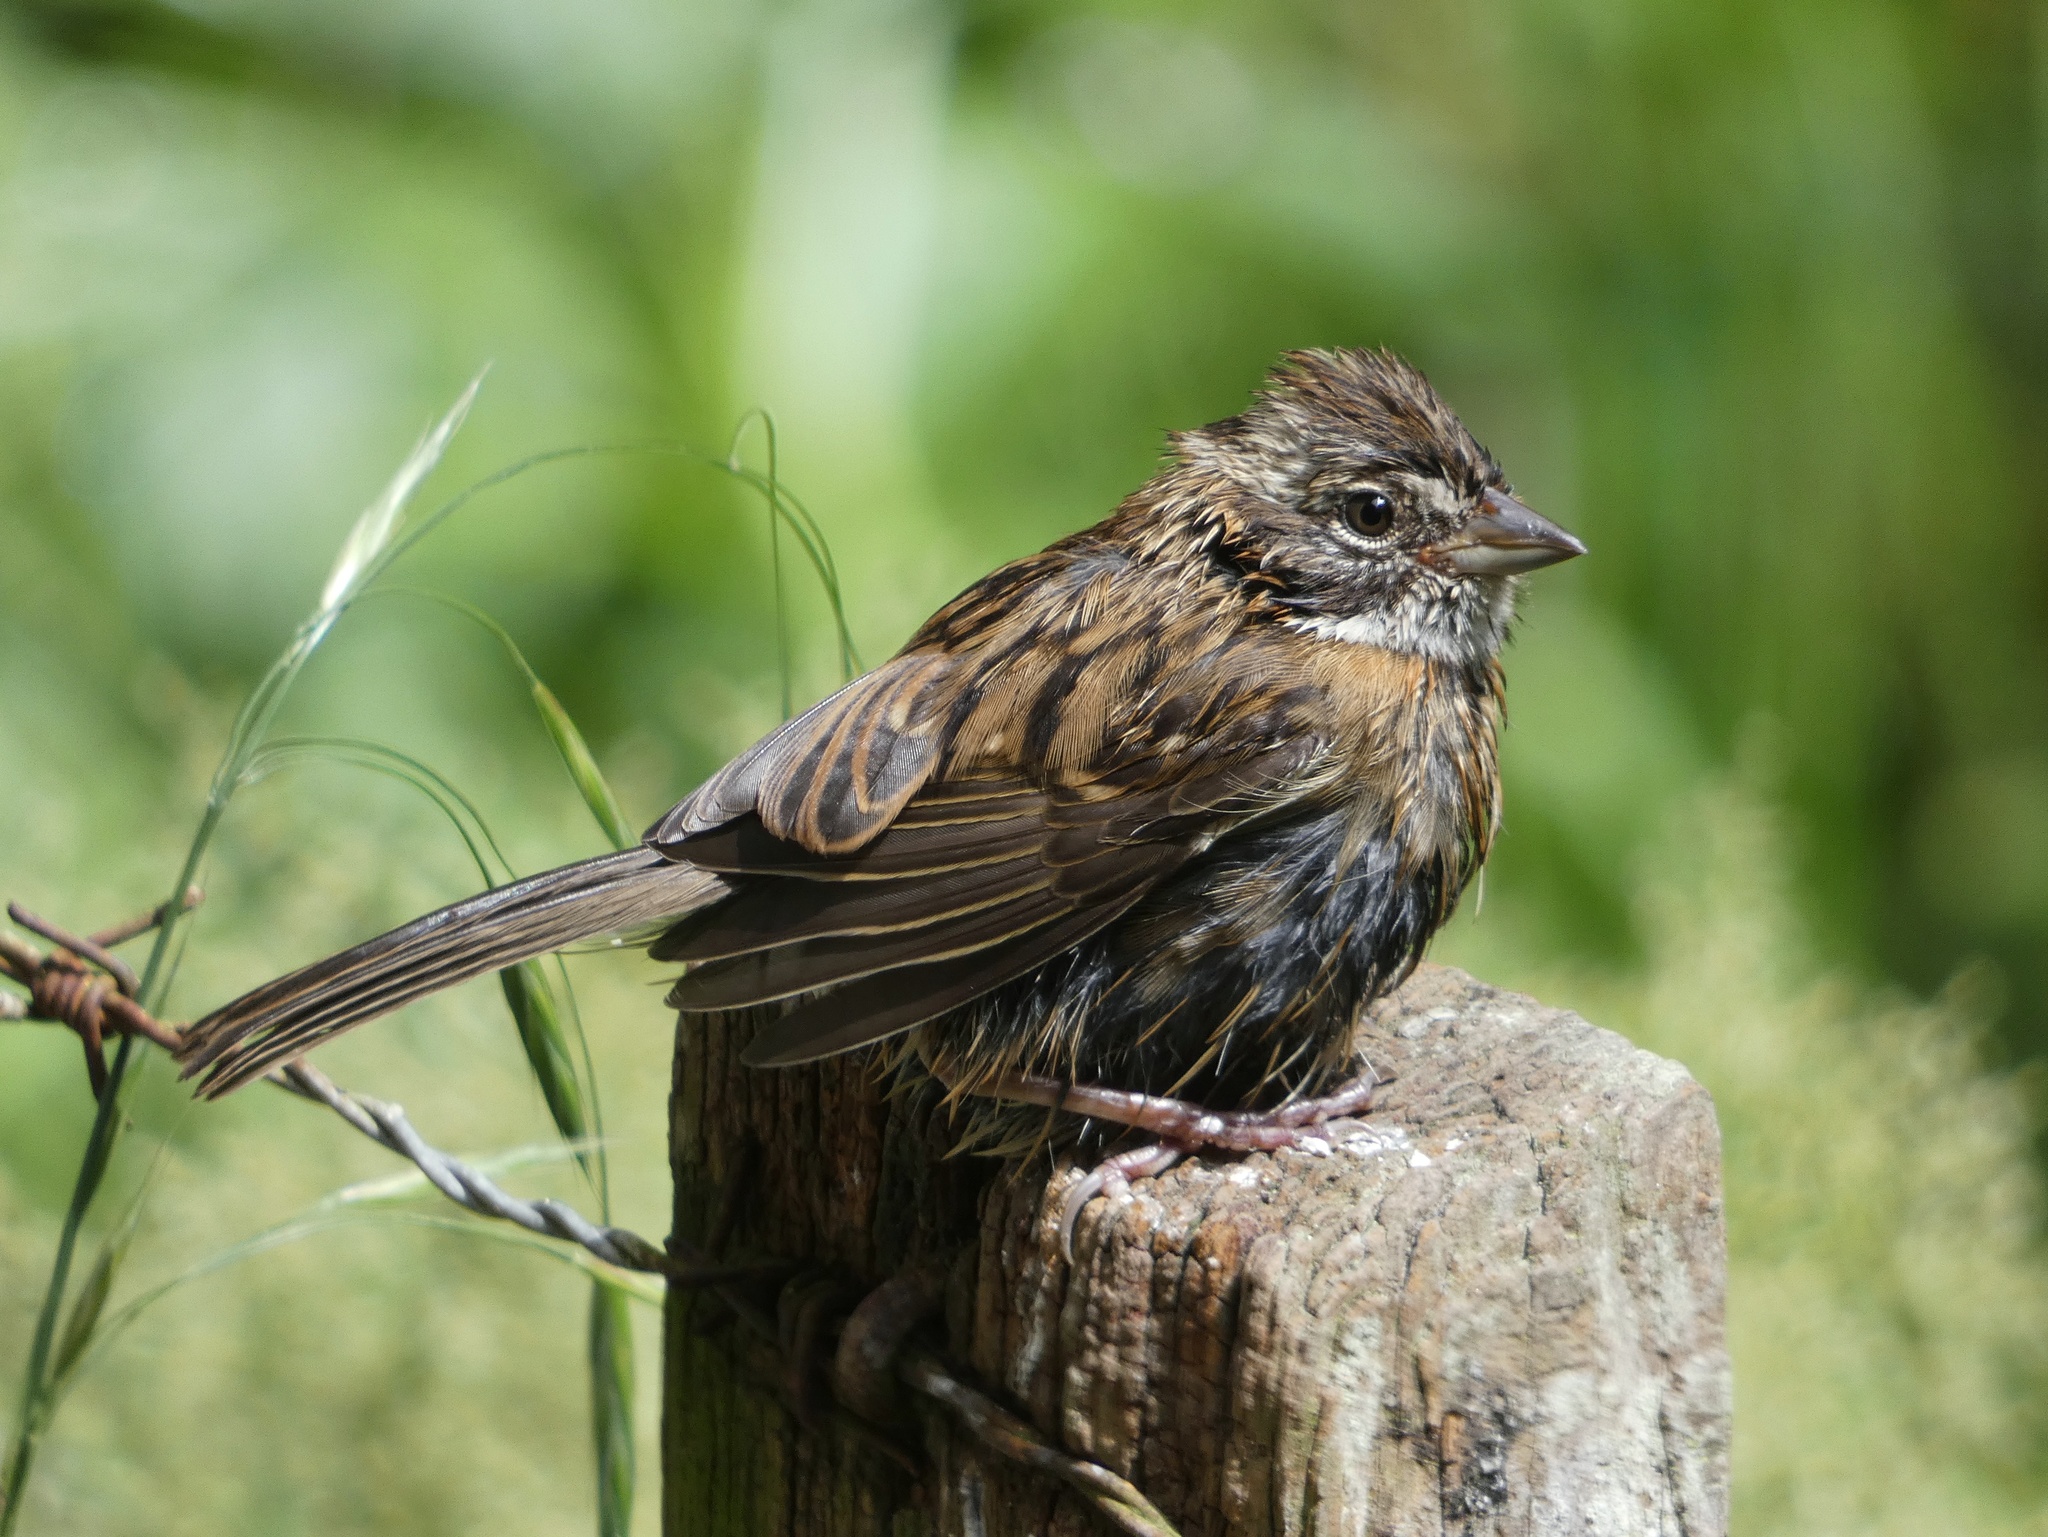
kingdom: Animalia
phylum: Chordata
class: Aves
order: Passeriformes
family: Passerellidae
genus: Zonotrichia
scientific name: Zonotrichia capensis
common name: Rufous-collared sparrow
